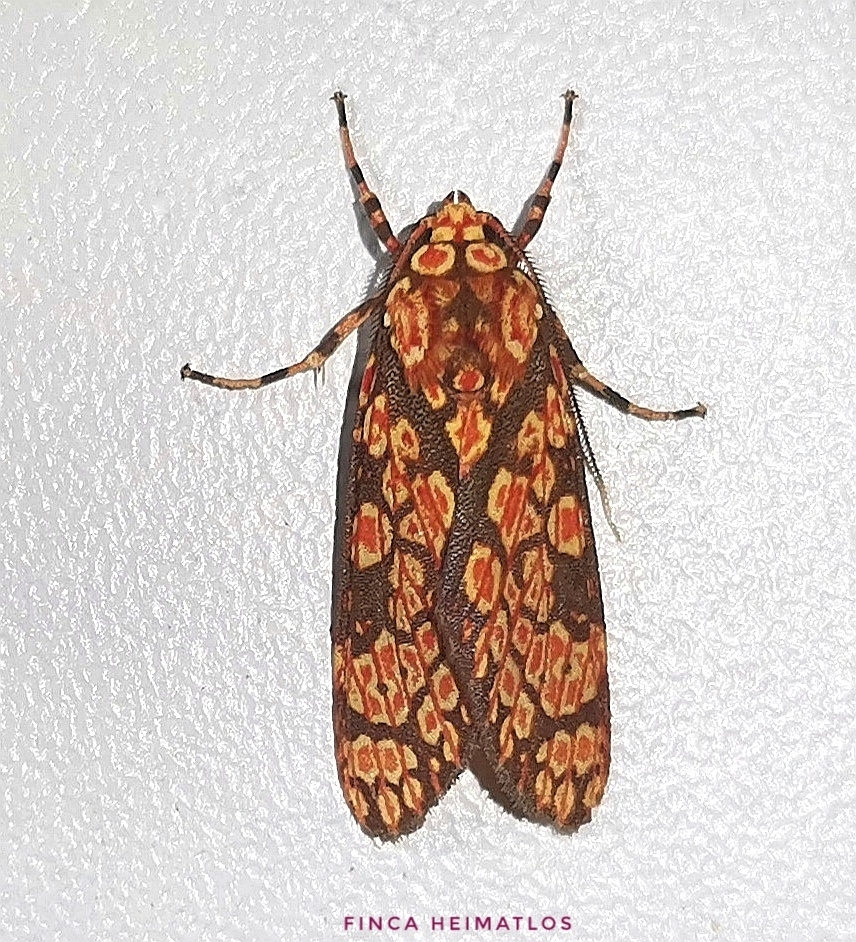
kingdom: Animalia
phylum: Arthropoda
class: Insecta
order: Lepidoptera
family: Erebidae
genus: Cresera
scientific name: Cresera optimus
